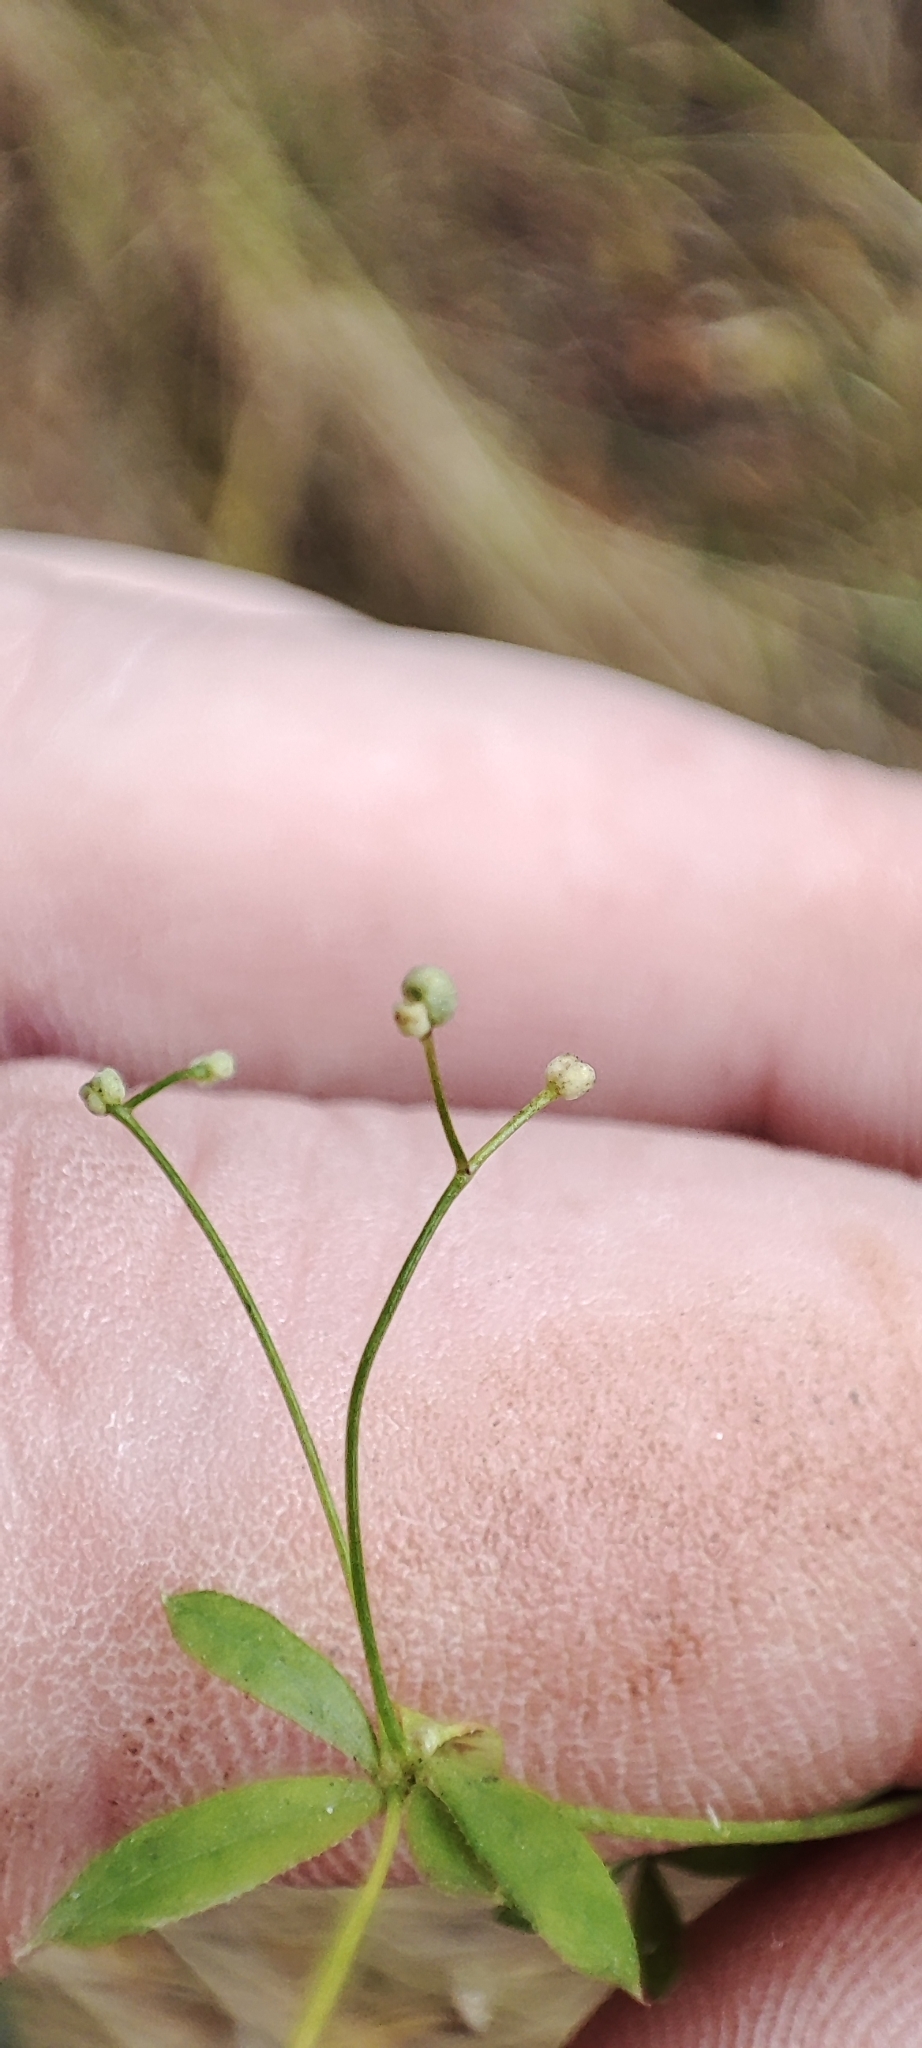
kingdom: Plantae
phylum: Tracheophyta
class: Magnoliopsida
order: Gentianales
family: Rubiaceae
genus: Galium
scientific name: Galium uliginosum
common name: Fen bedstraw
